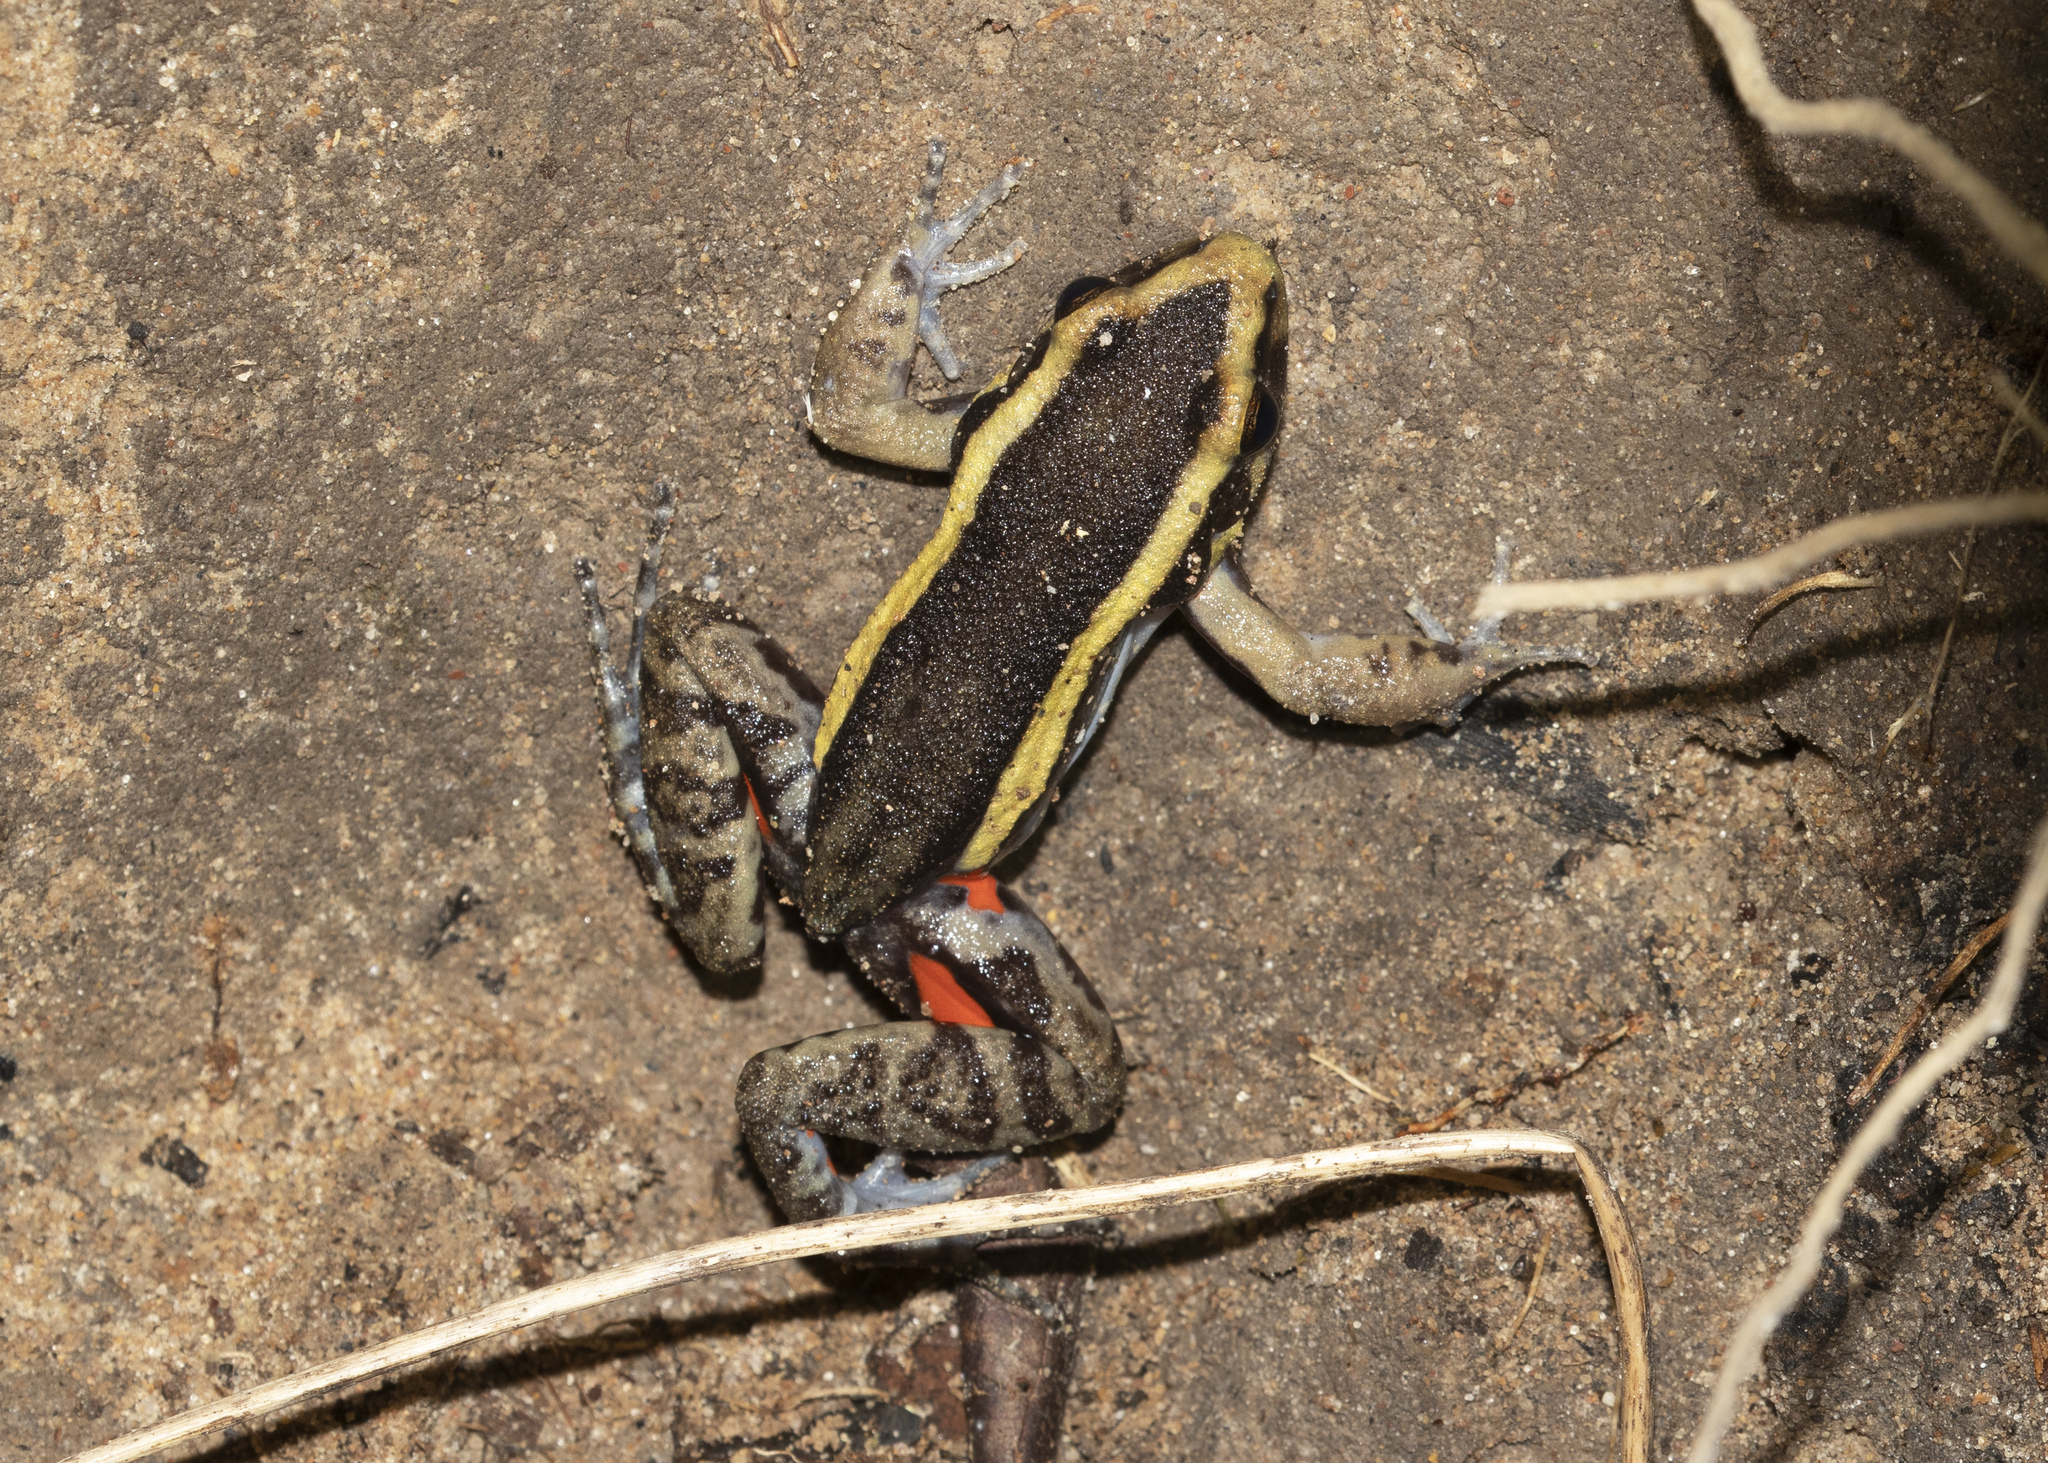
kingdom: Animalia
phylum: Chordata
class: Amphibia
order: Anura
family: Leptodactylidae
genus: Lithodytes
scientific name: Lithodytes lineatus
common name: Gold-striped frog
